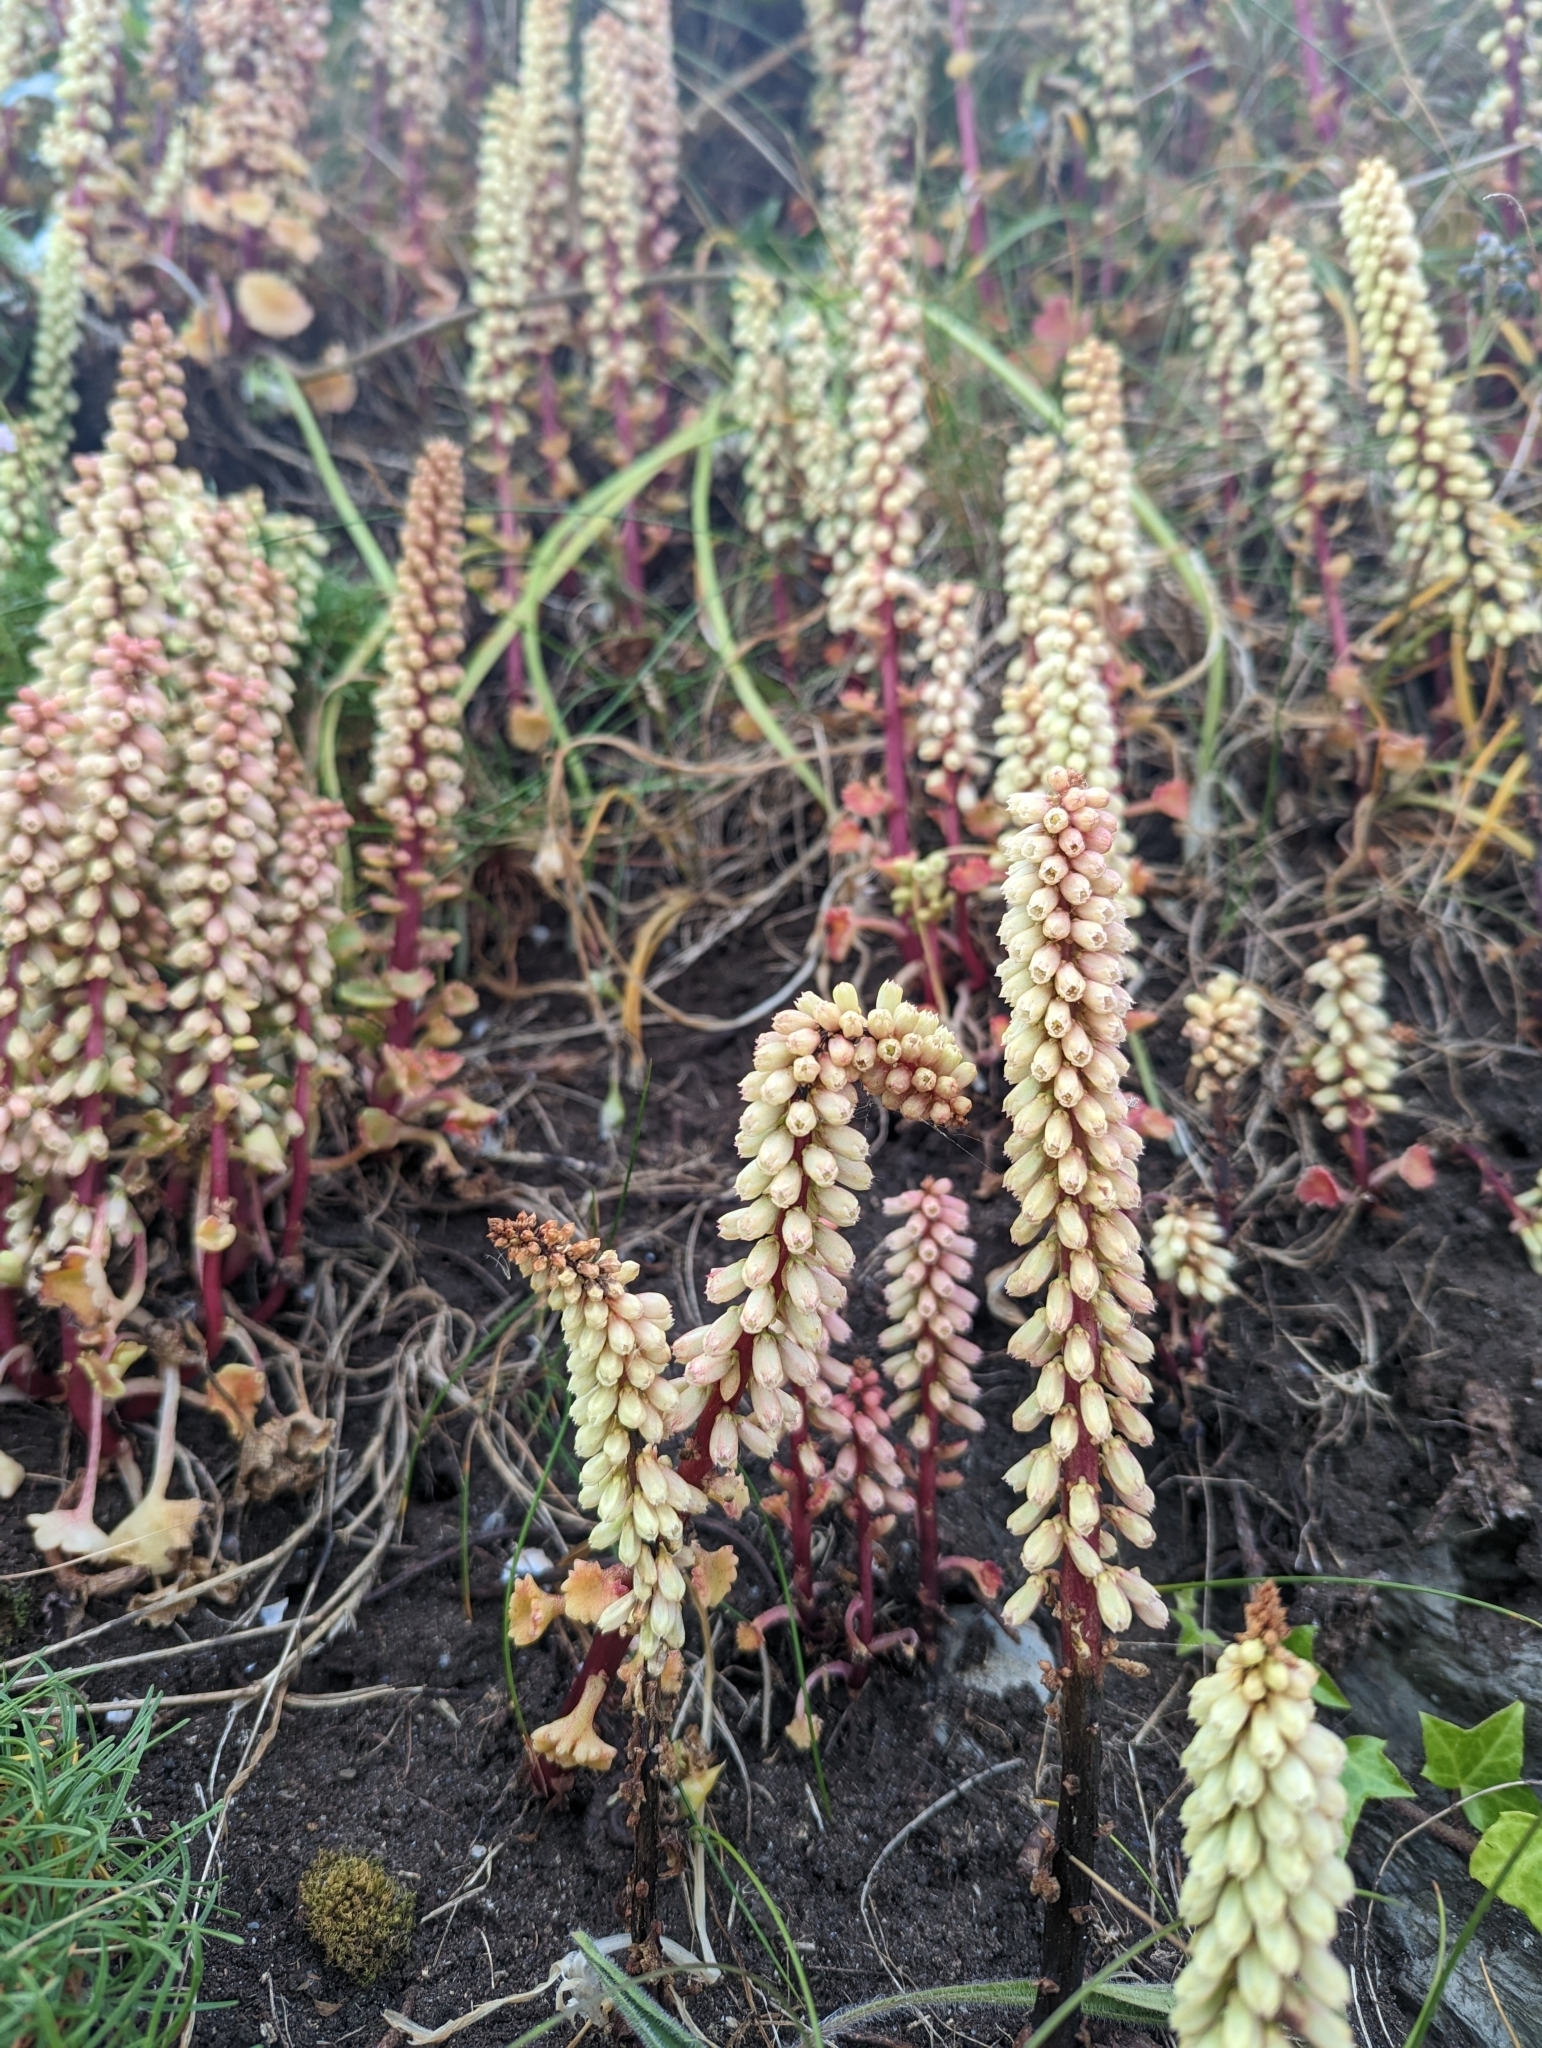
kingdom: Plantae
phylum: Tracheophyta
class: Magnoliopsida
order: Saxifragales
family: Crassulaceae
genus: Umbilicus
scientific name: Umbilicus rupestris
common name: Navelwort
